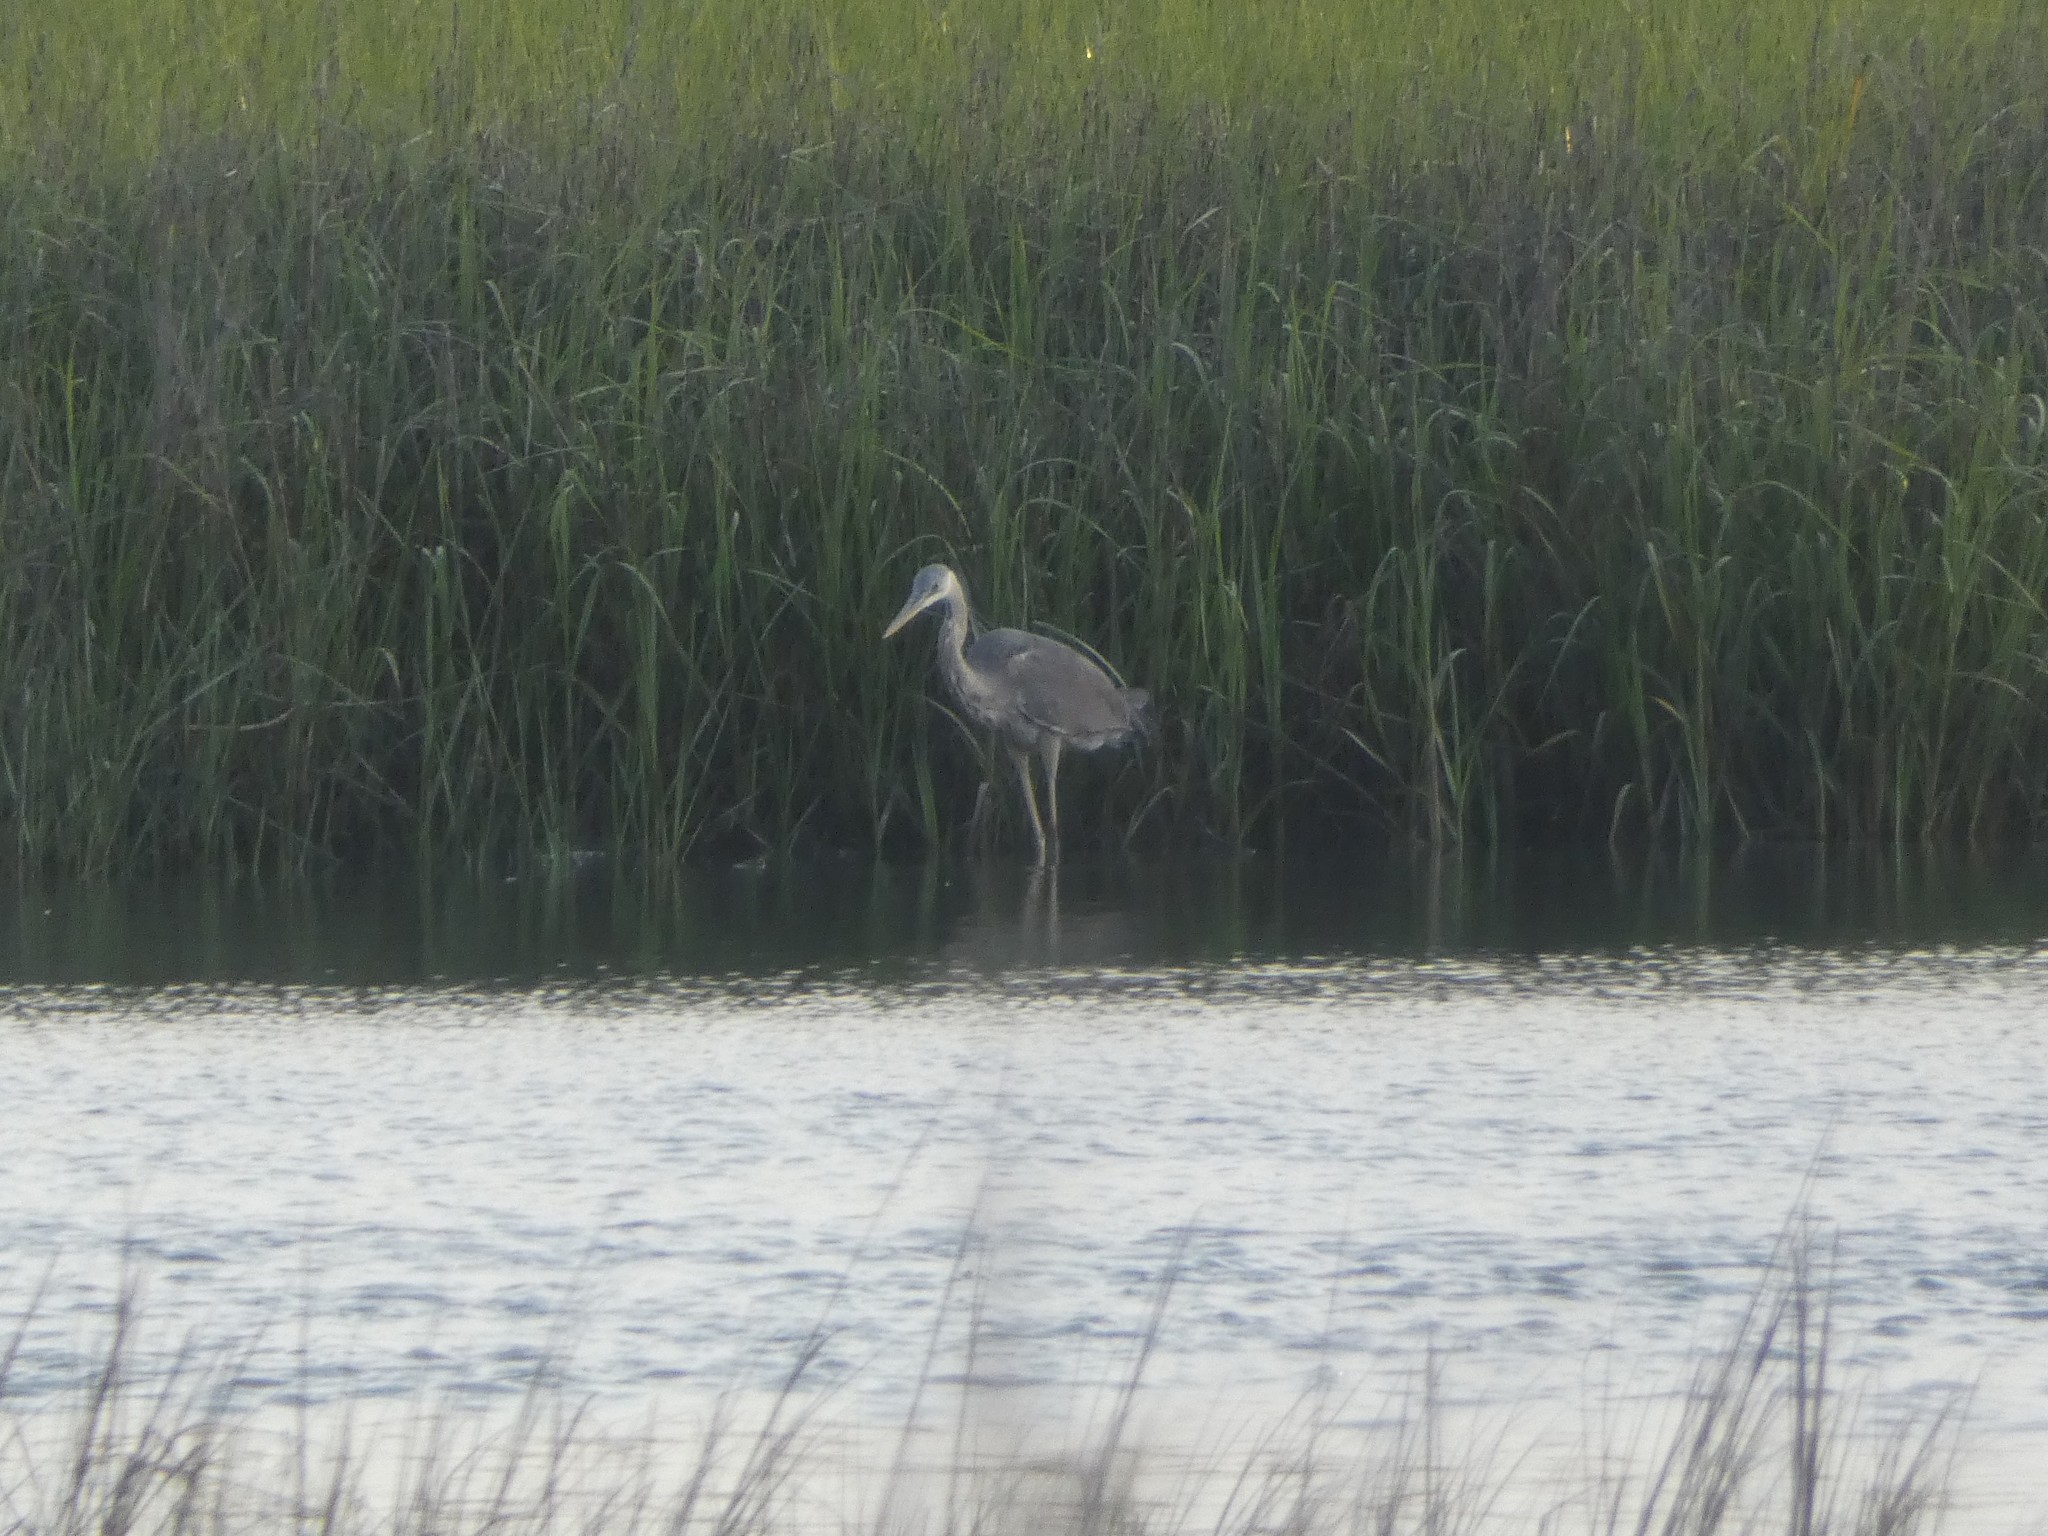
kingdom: Animalia
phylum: Chordata
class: Aves
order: Pelecaniformes
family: Ardeidae
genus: Ardea
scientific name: Ardea herodias
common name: Great blue heron
